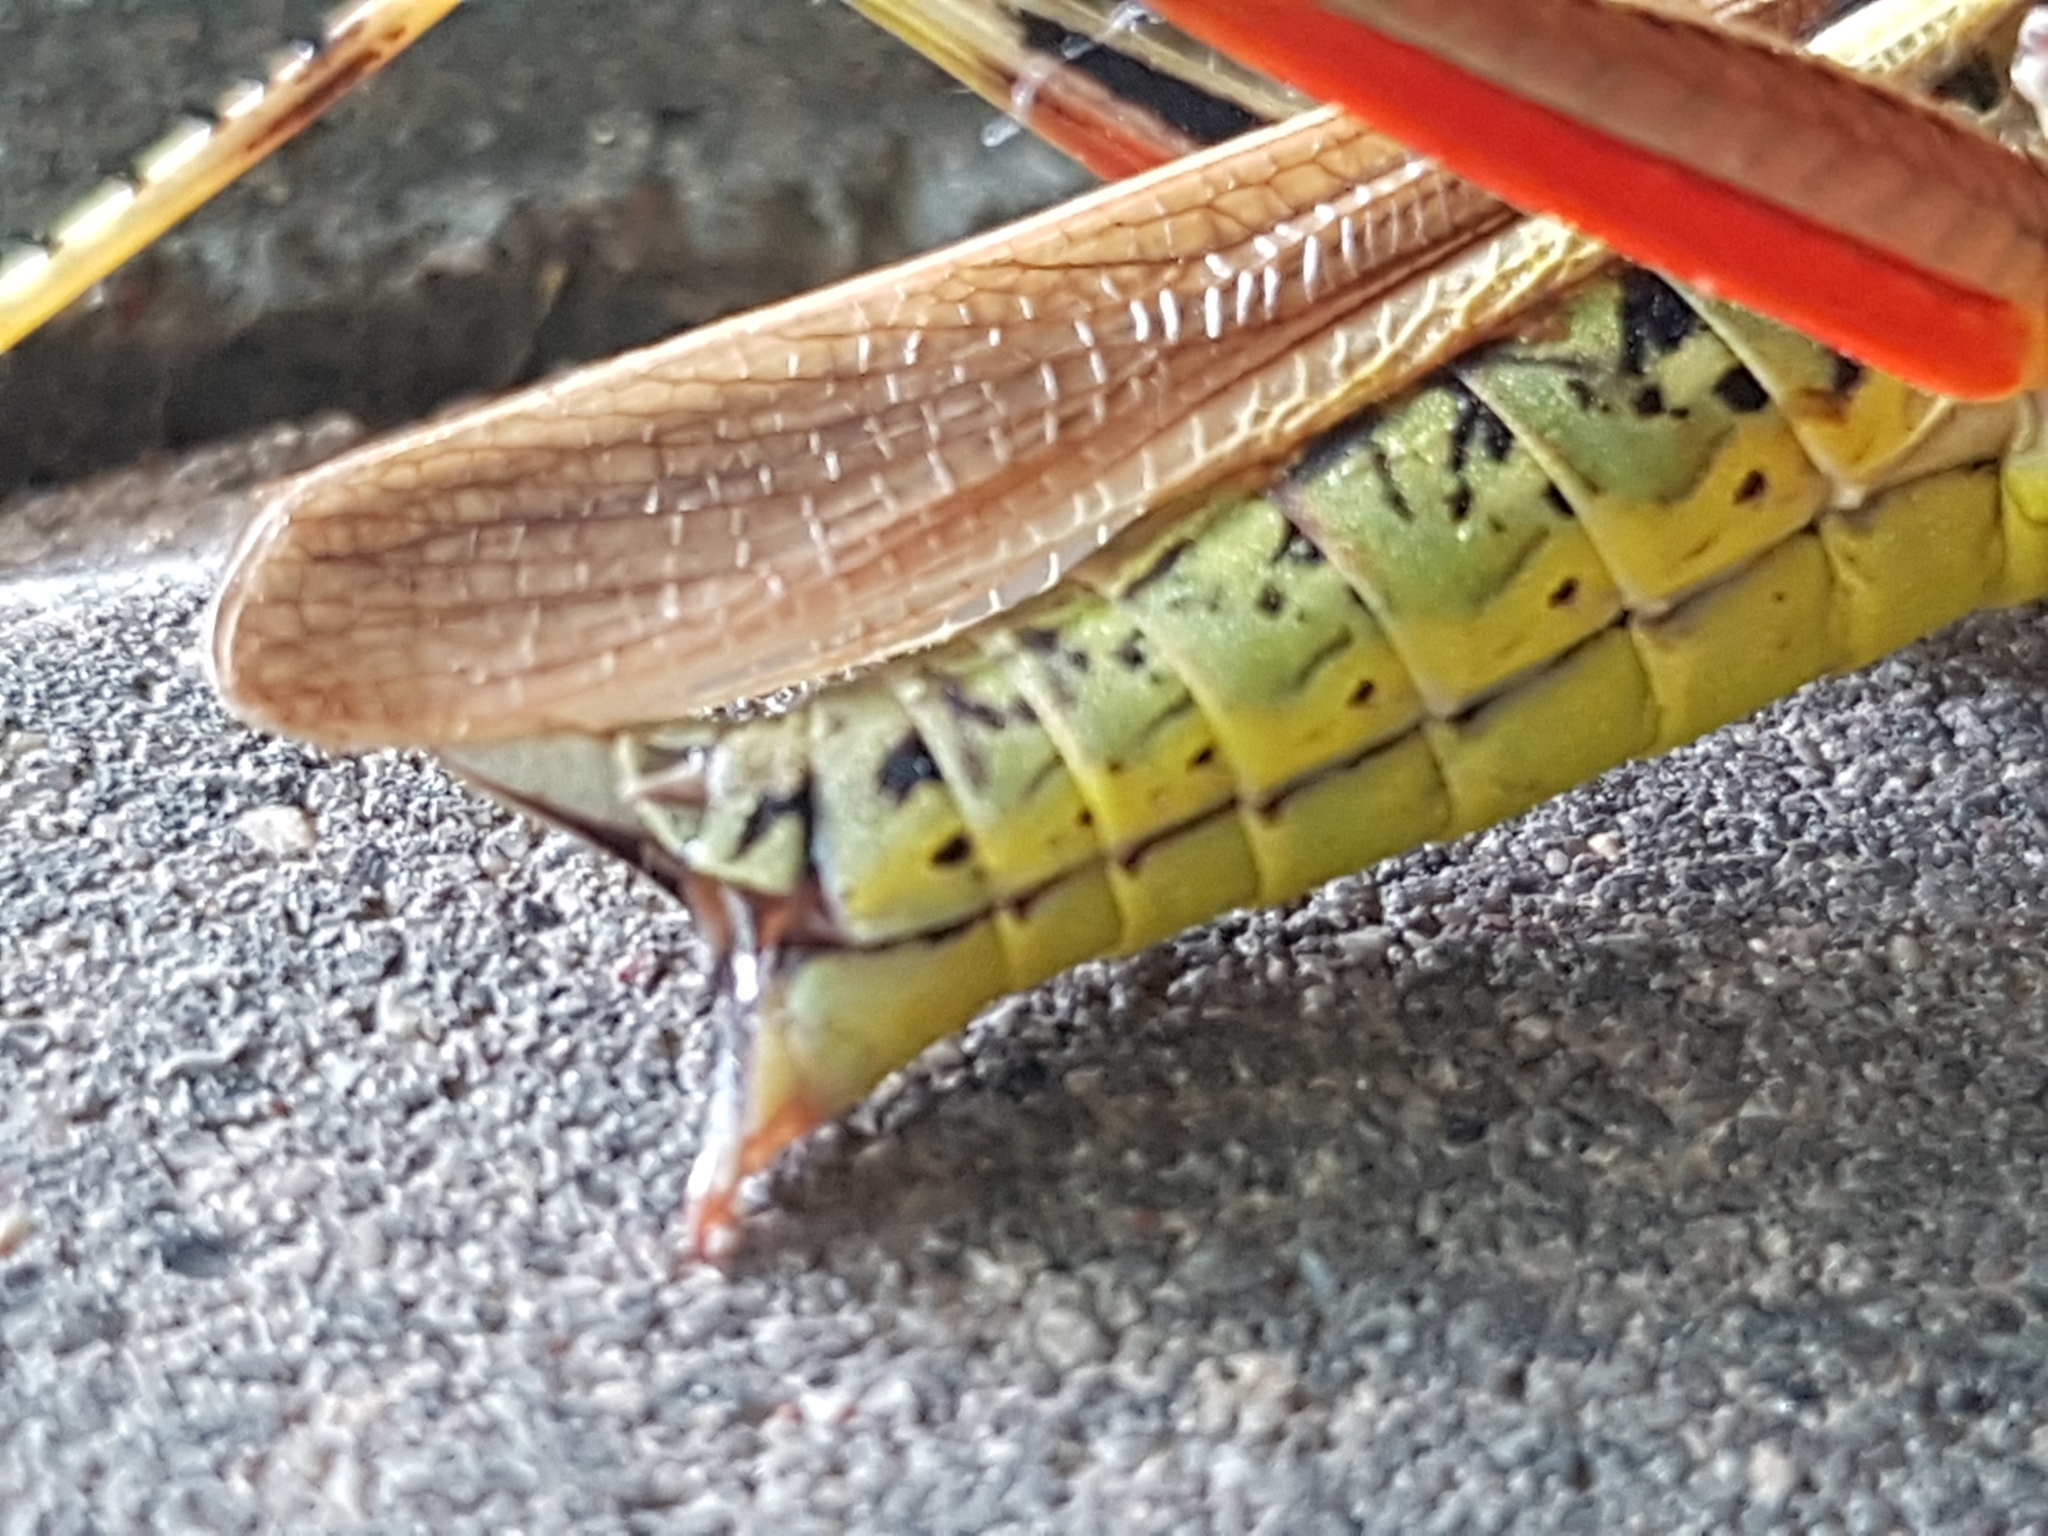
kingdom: Animalia
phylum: Arthropoda
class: Insecta
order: Orthoptera
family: Acrididae
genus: Stethophyma
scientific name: Stethophyma grossum
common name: Large marsh grasshopper
